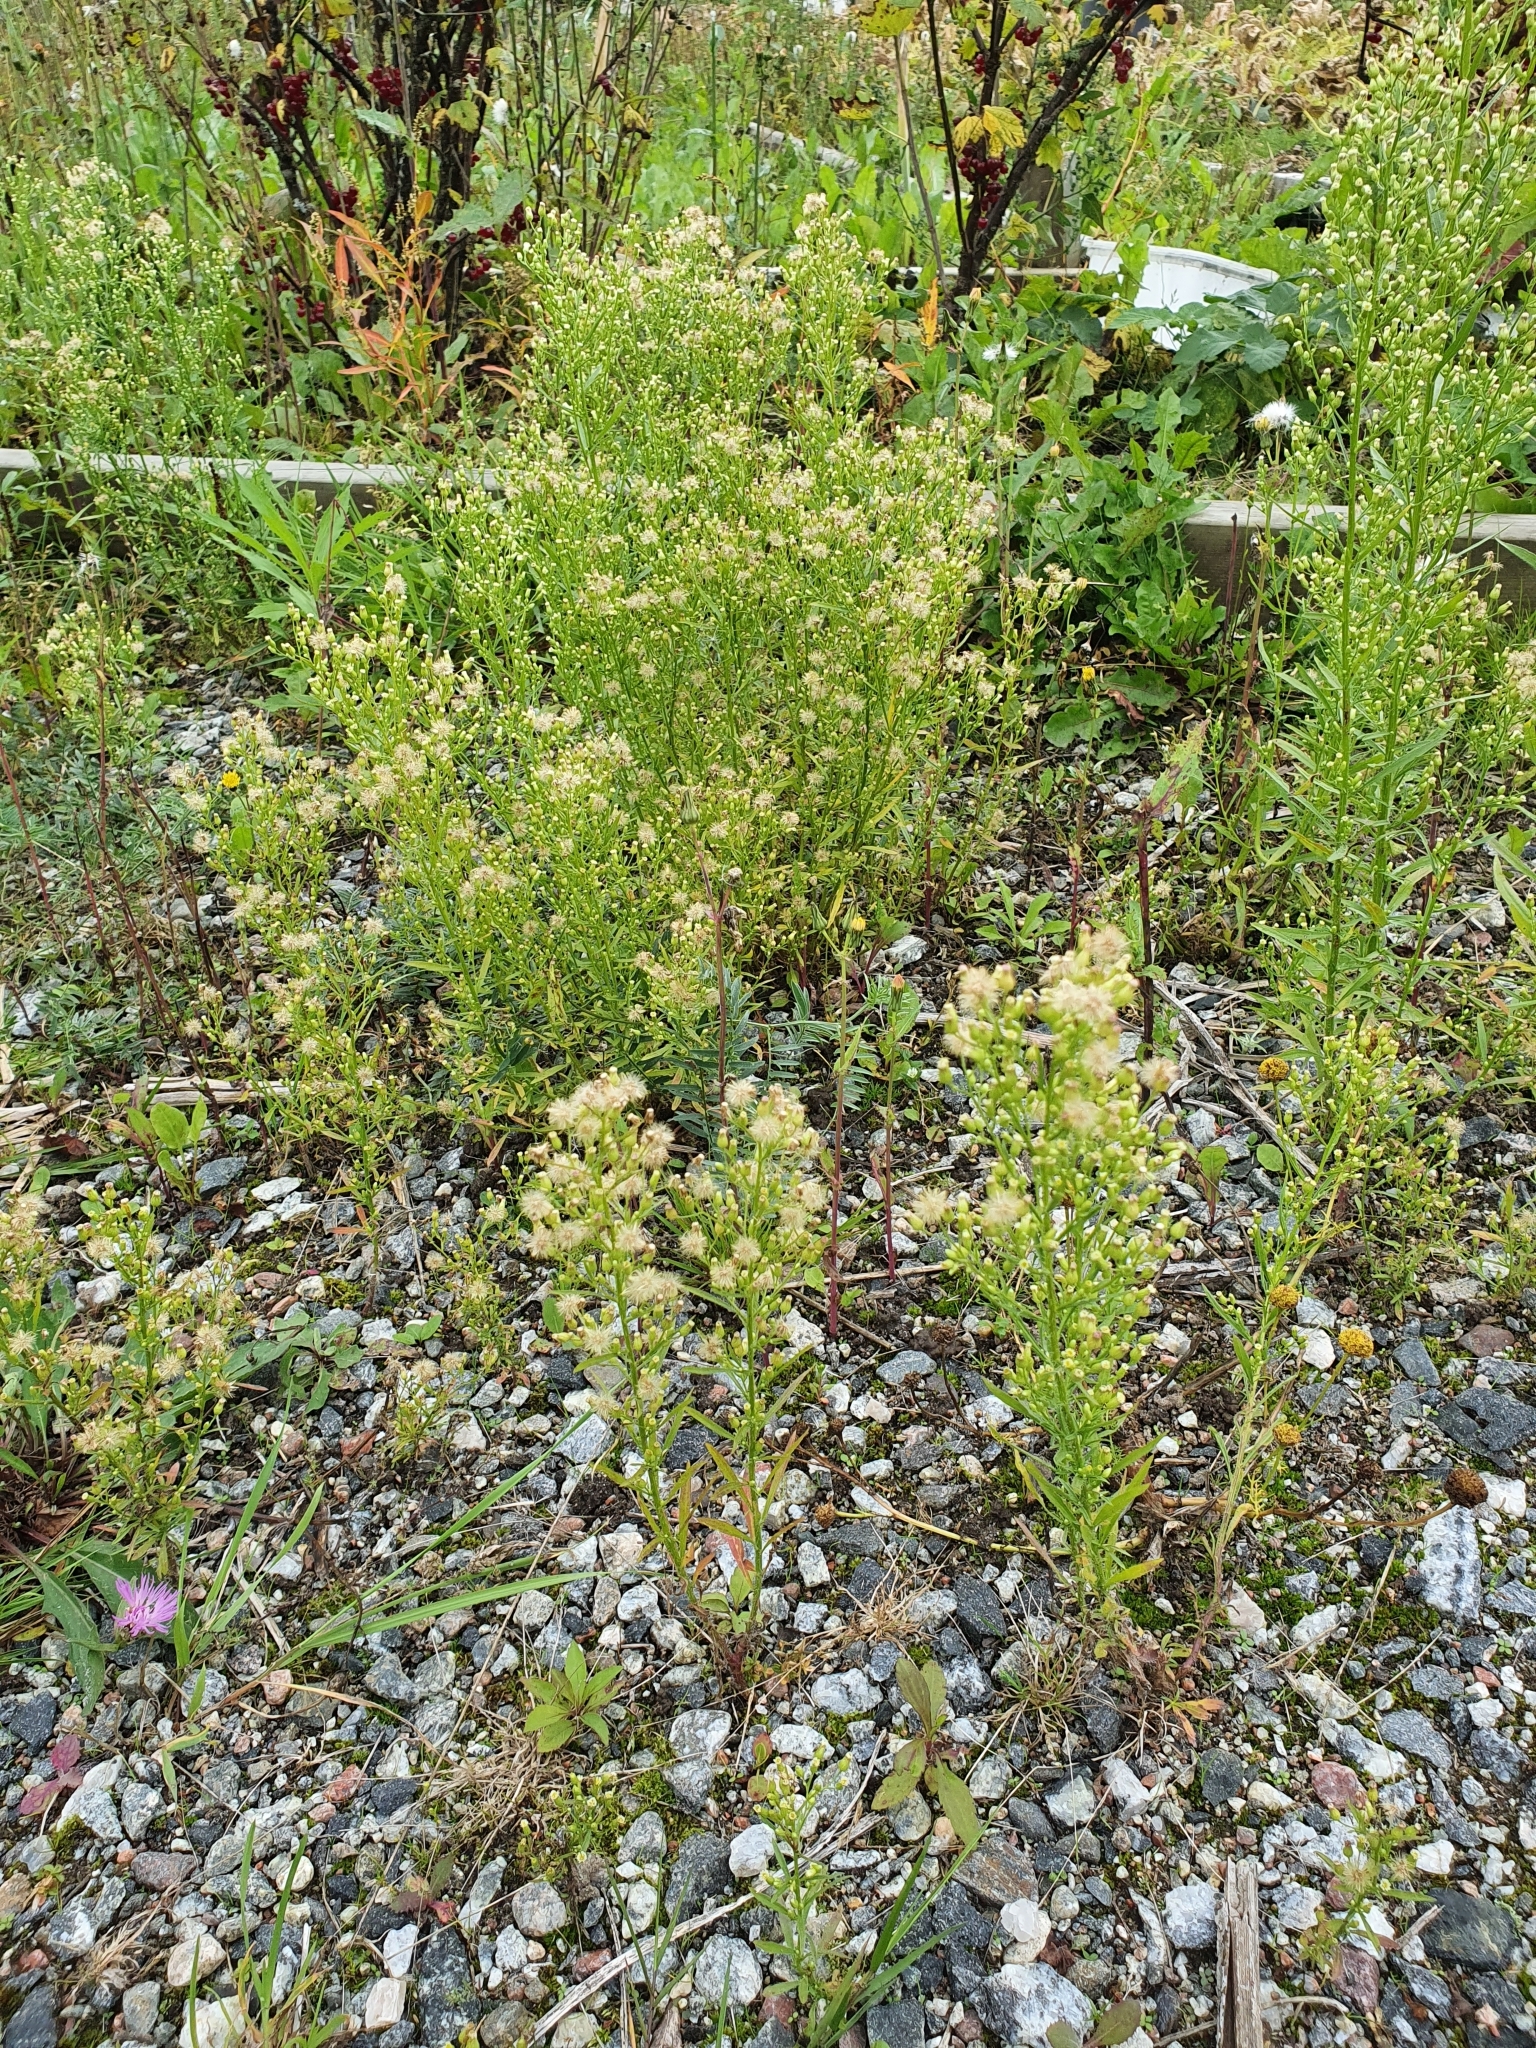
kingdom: Plantae
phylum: Tracheophyta
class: Magnoliopsida
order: Asterales
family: Asteraceae
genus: Erigeron
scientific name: Erigeron canadensis
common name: Canadian fleabane
